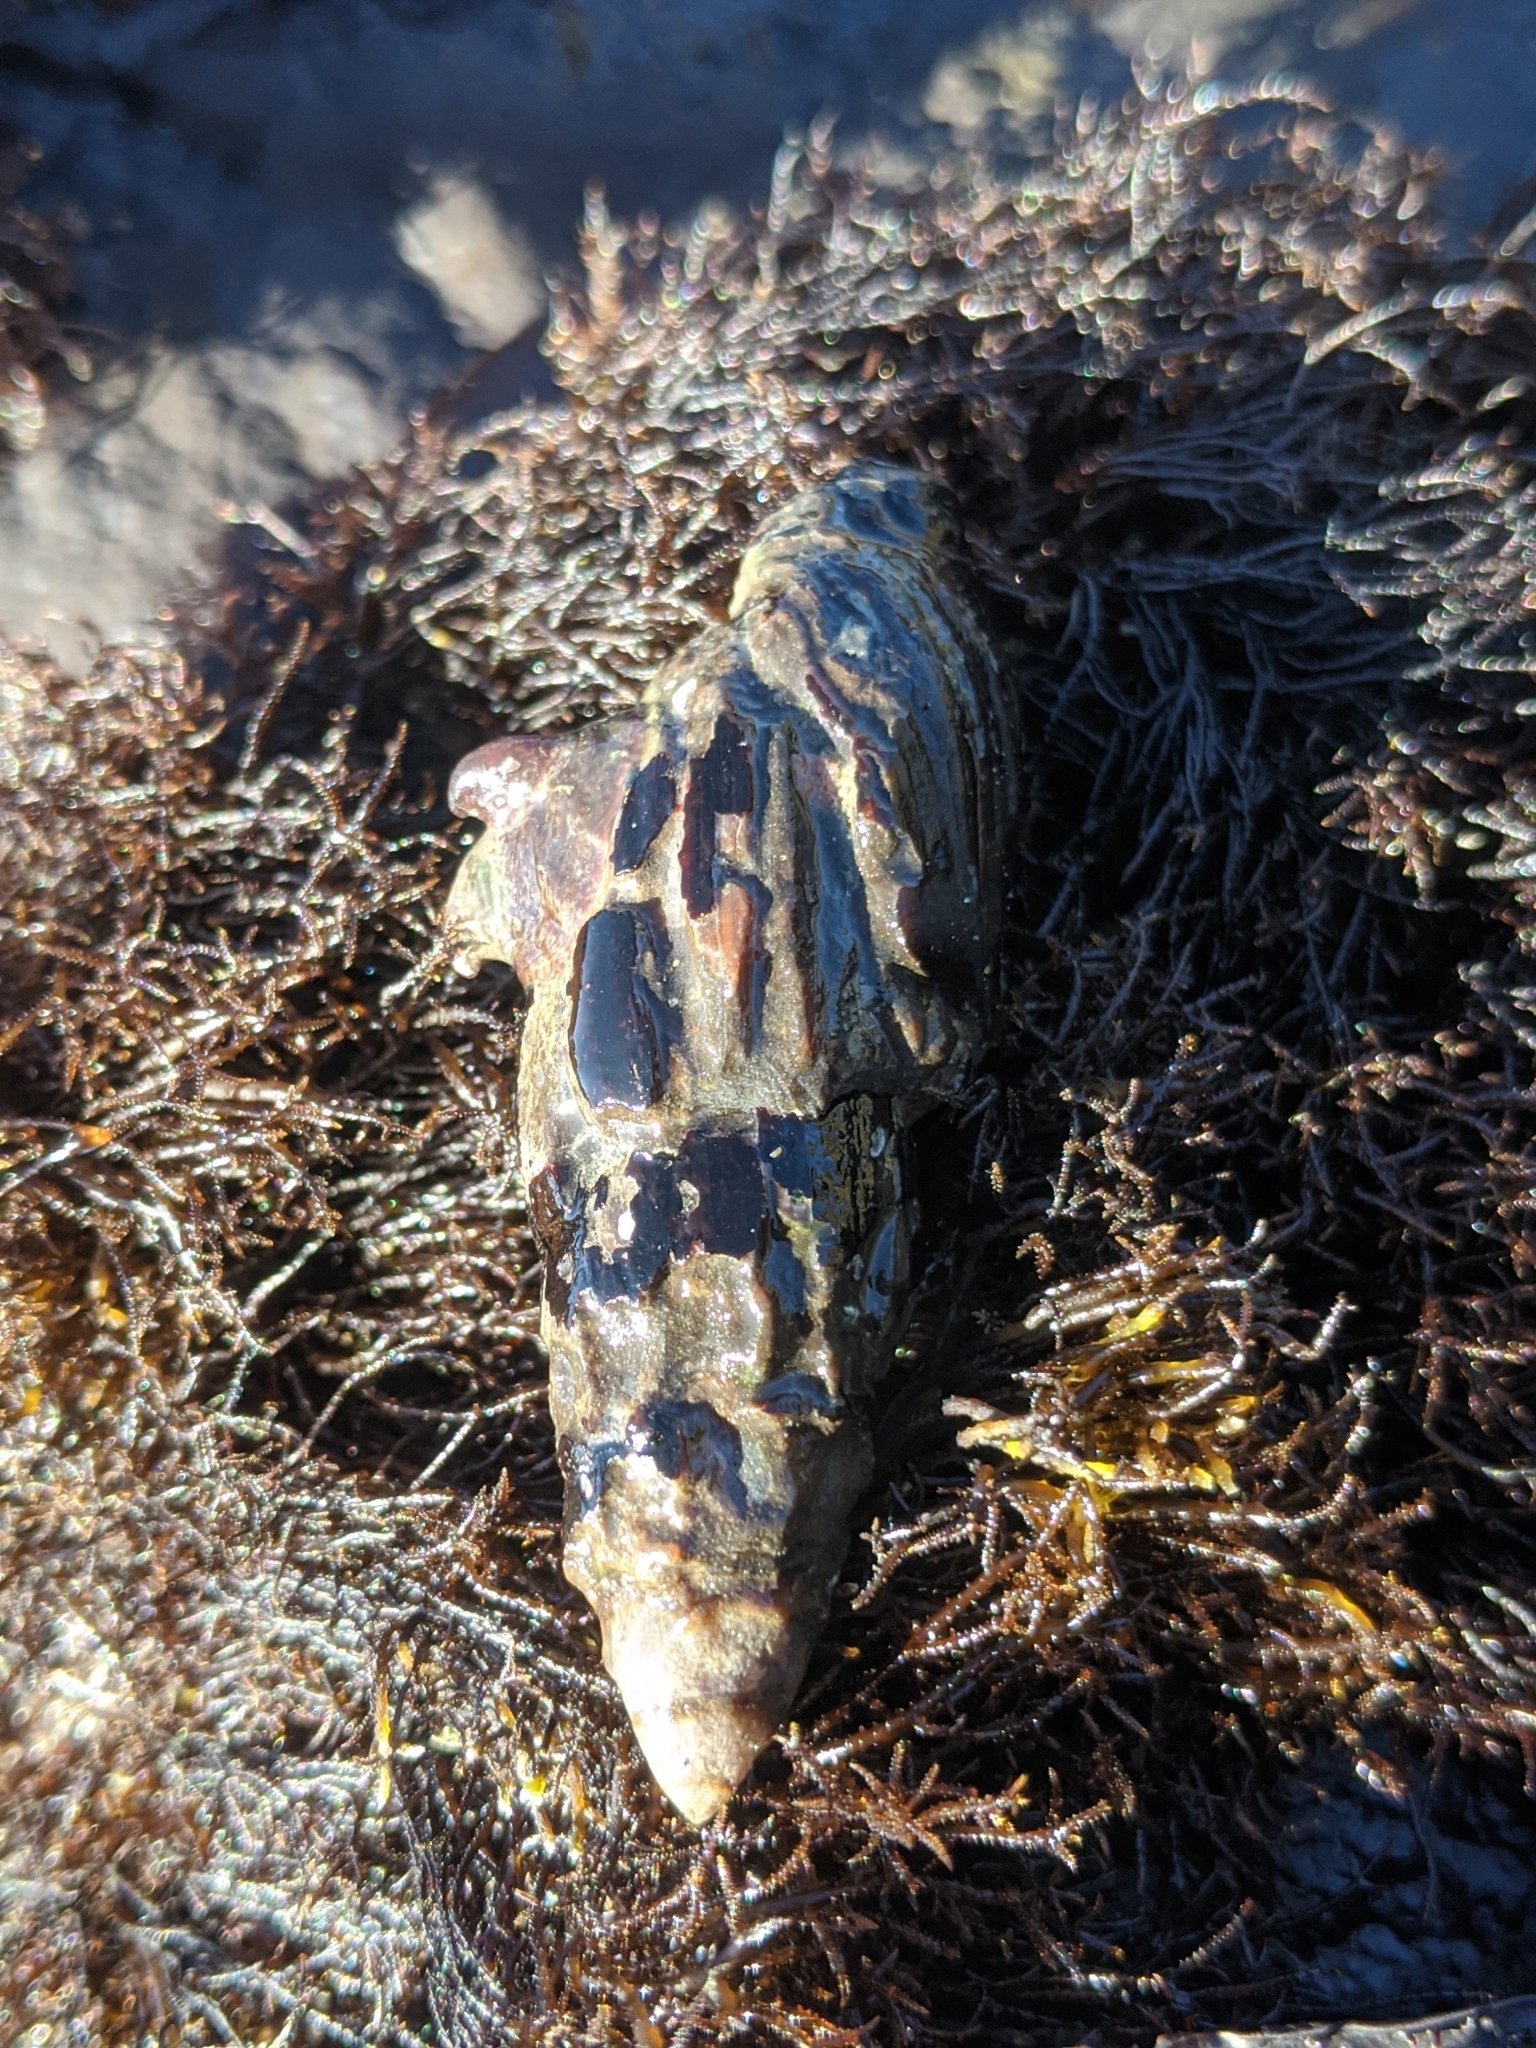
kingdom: Animalia
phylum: Mollusca
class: Gastropoda
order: Neogastropoda
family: Mitridae
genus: Atrimitra
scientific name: Atrimitra idae
